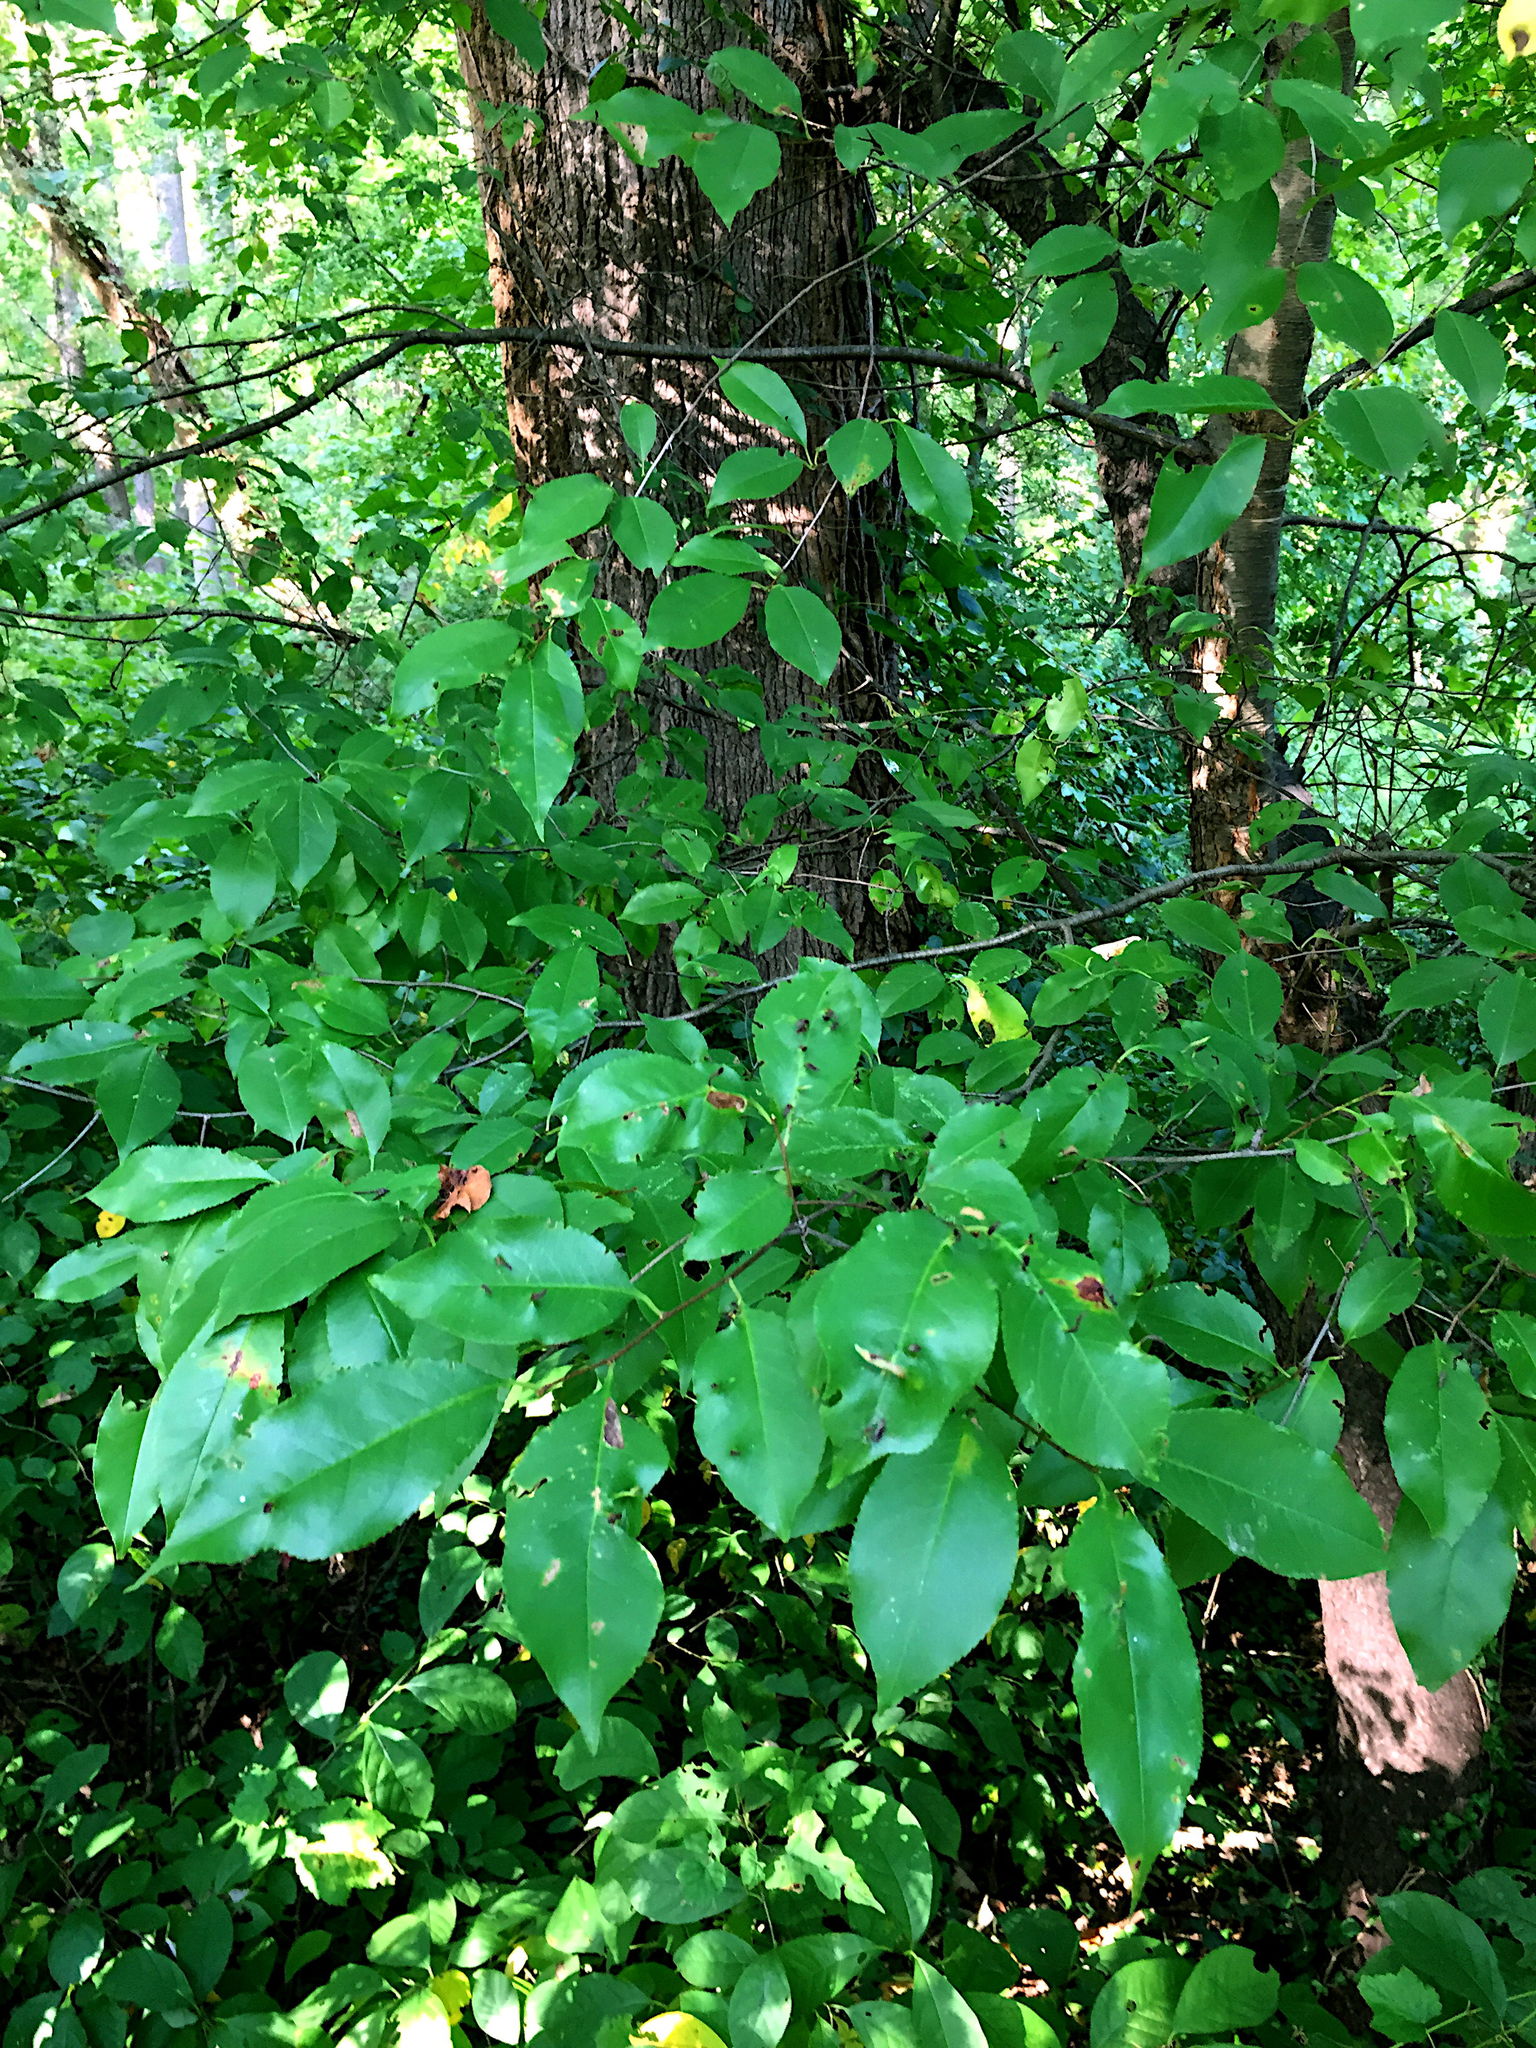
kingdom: Plantae
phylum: Tracheophyta
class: Magnoliopsida
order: Rosales
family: Rosaceae
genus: Prunus
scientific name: Prunus serotina
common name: Black cherry
